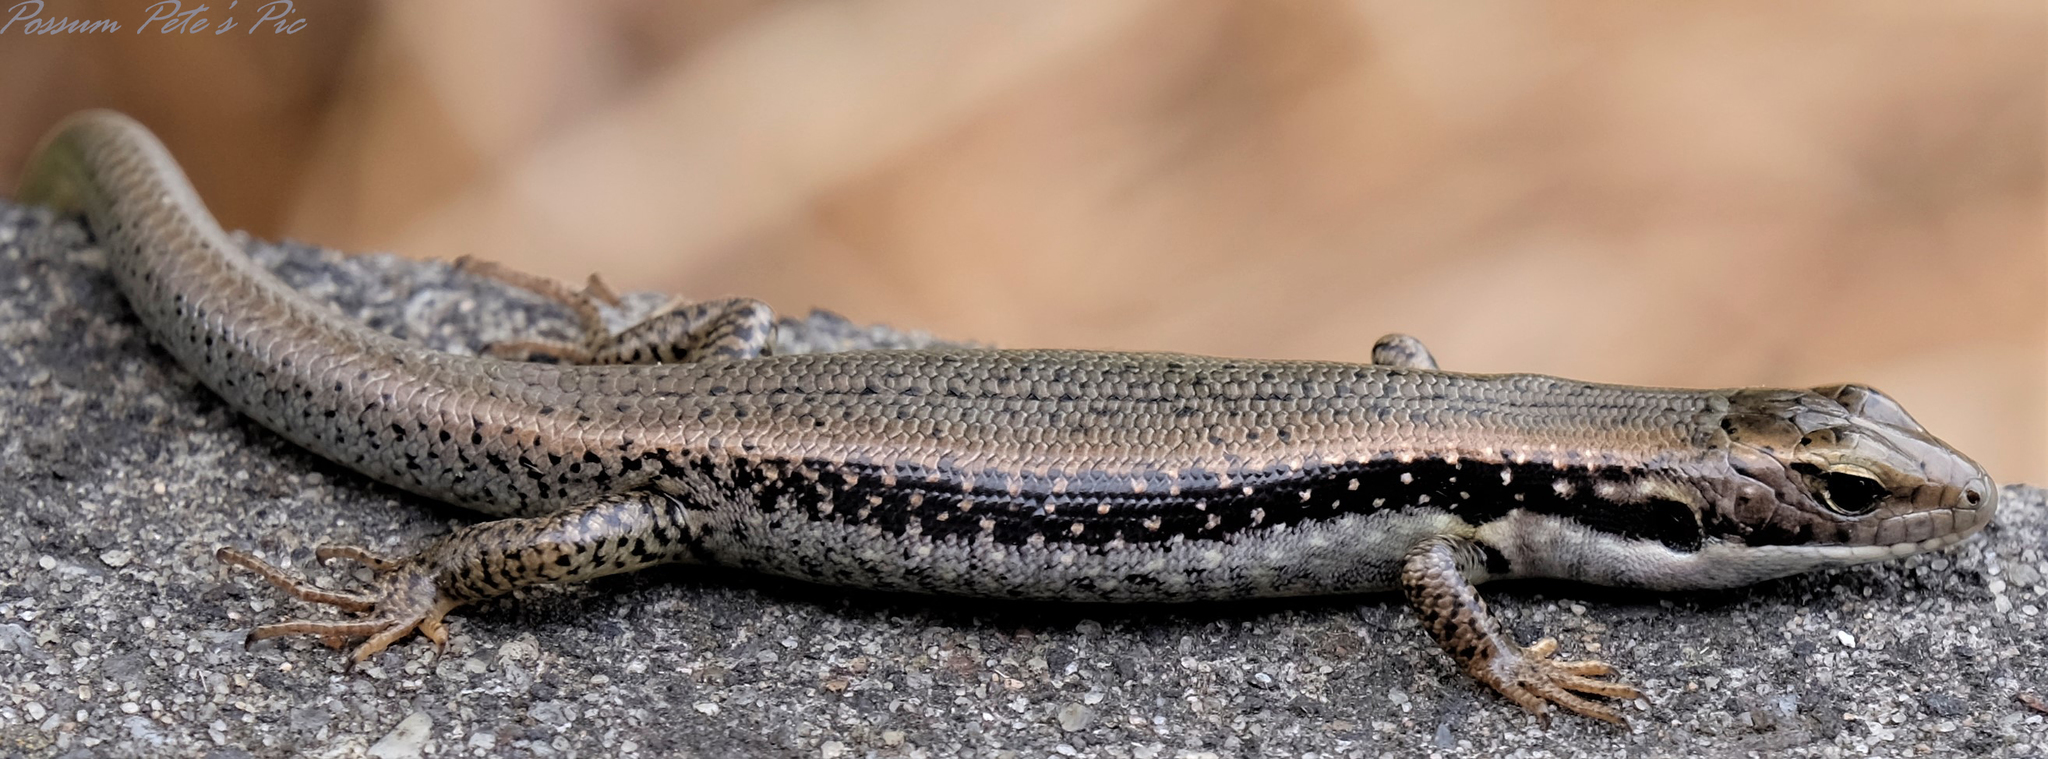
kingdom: Animalia
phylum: Chordata
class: Squamata
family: Scincidae
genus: Eulamprus
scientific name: Eulamprus tympanum
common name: Cool-temperate water-skink
